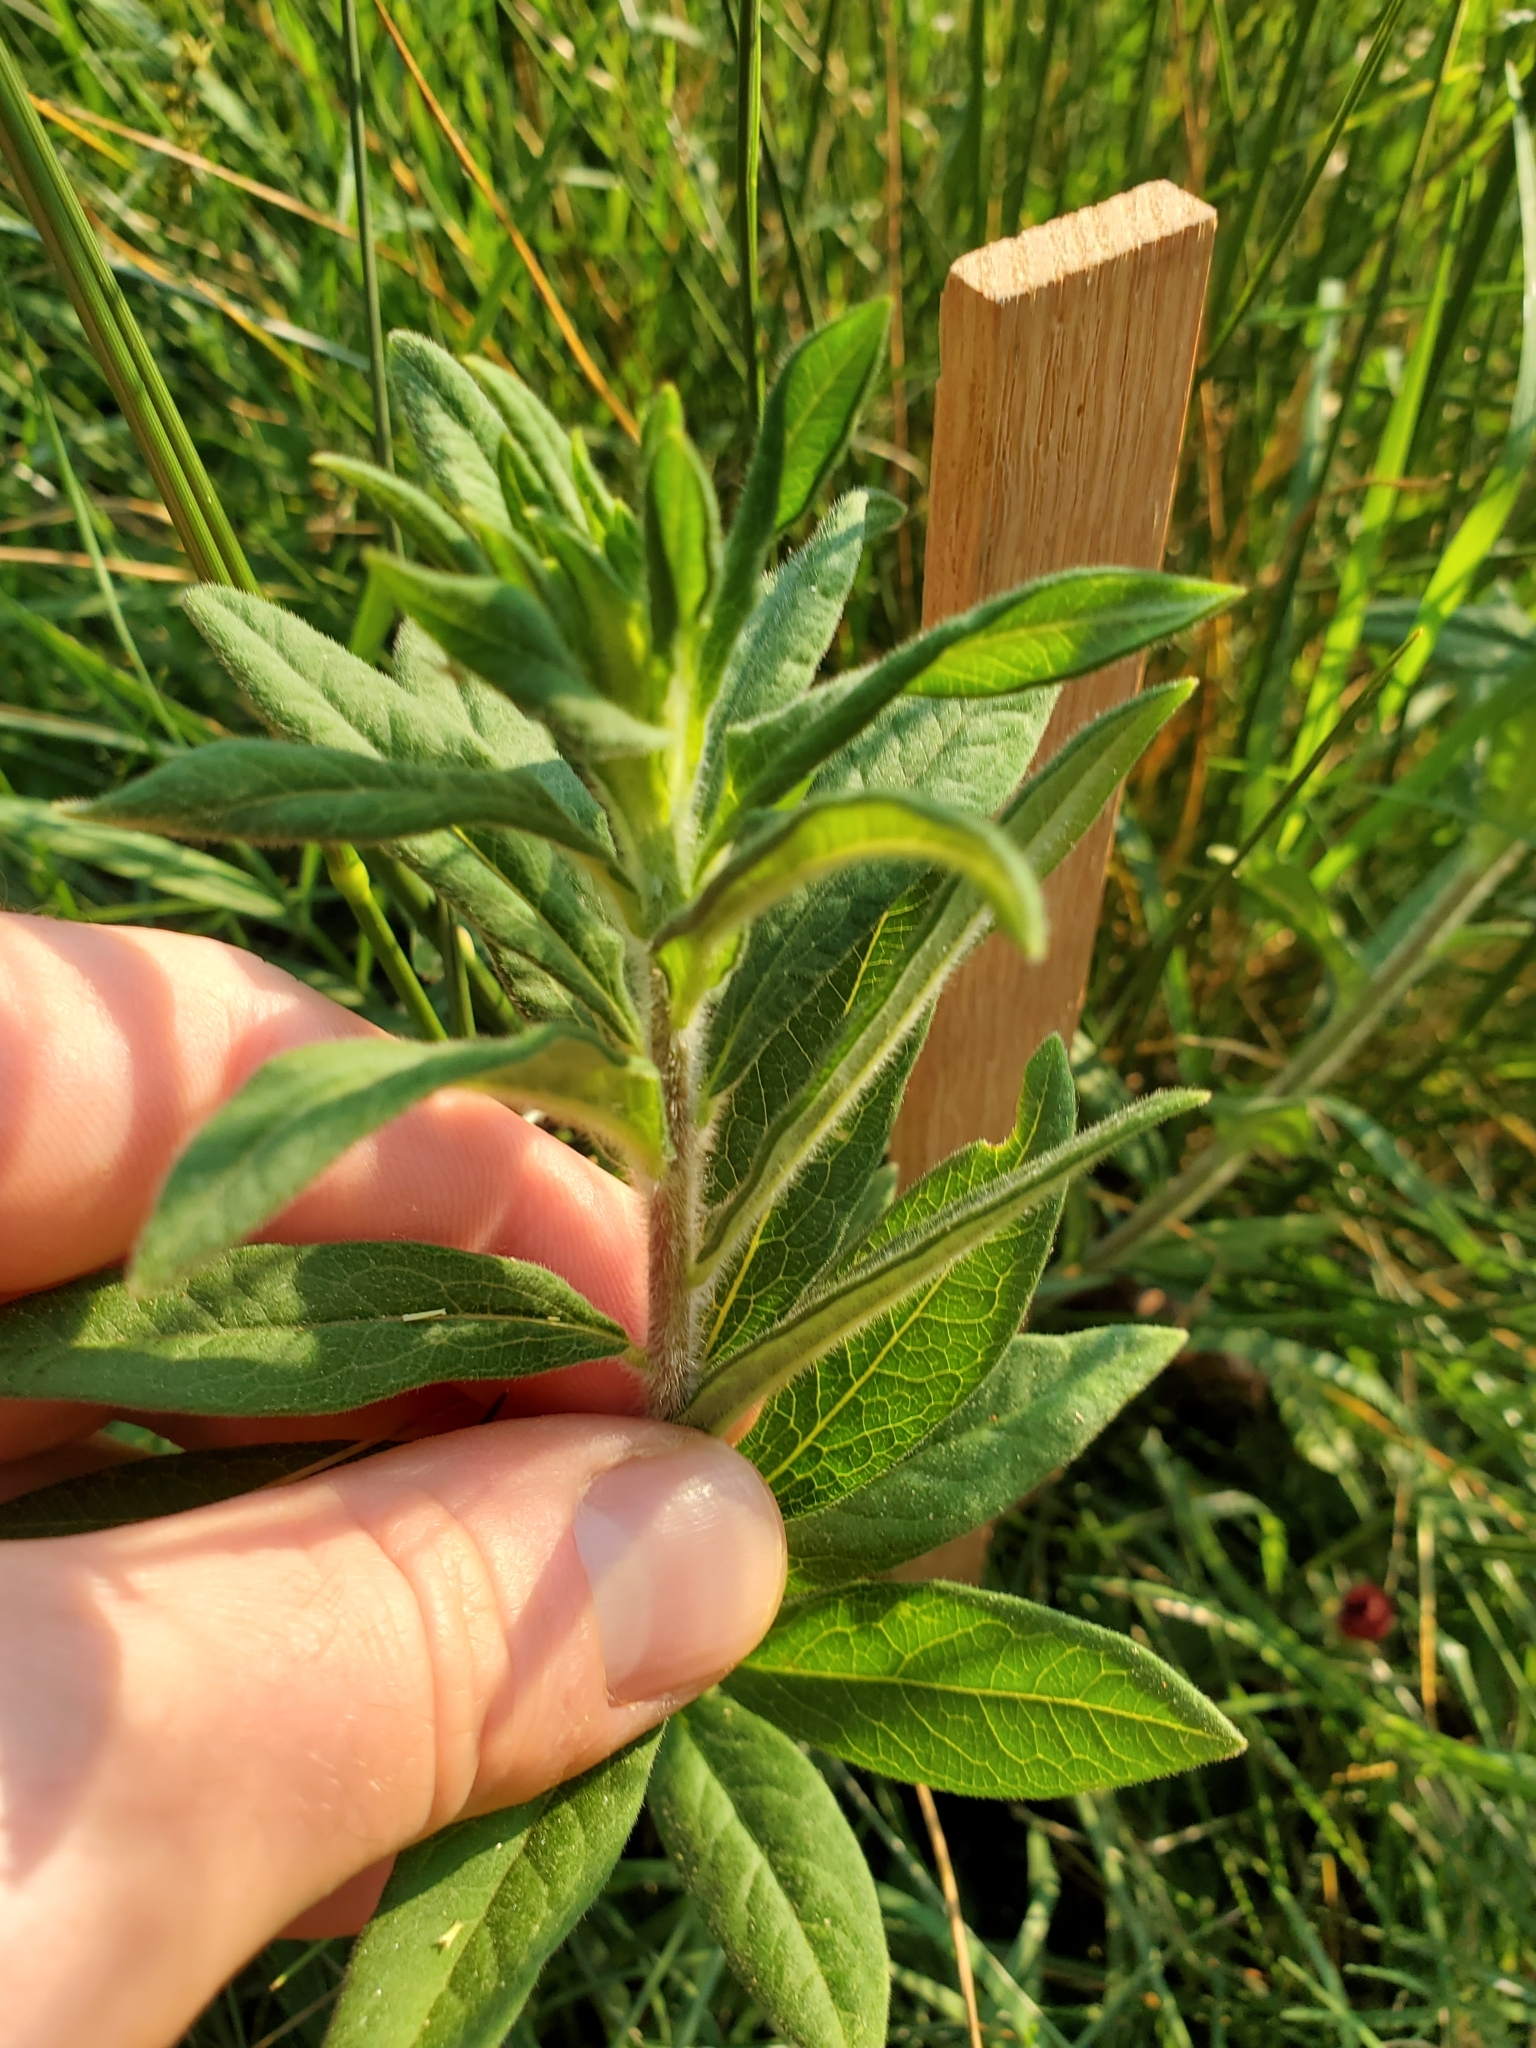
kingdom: Plantae
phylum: Tracheophyta
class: Magnoliopsida
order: Gentianales
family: Apocynaceae
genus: Asclepias
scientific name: Asclepias tuberosa
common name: Butterfly milkweed
